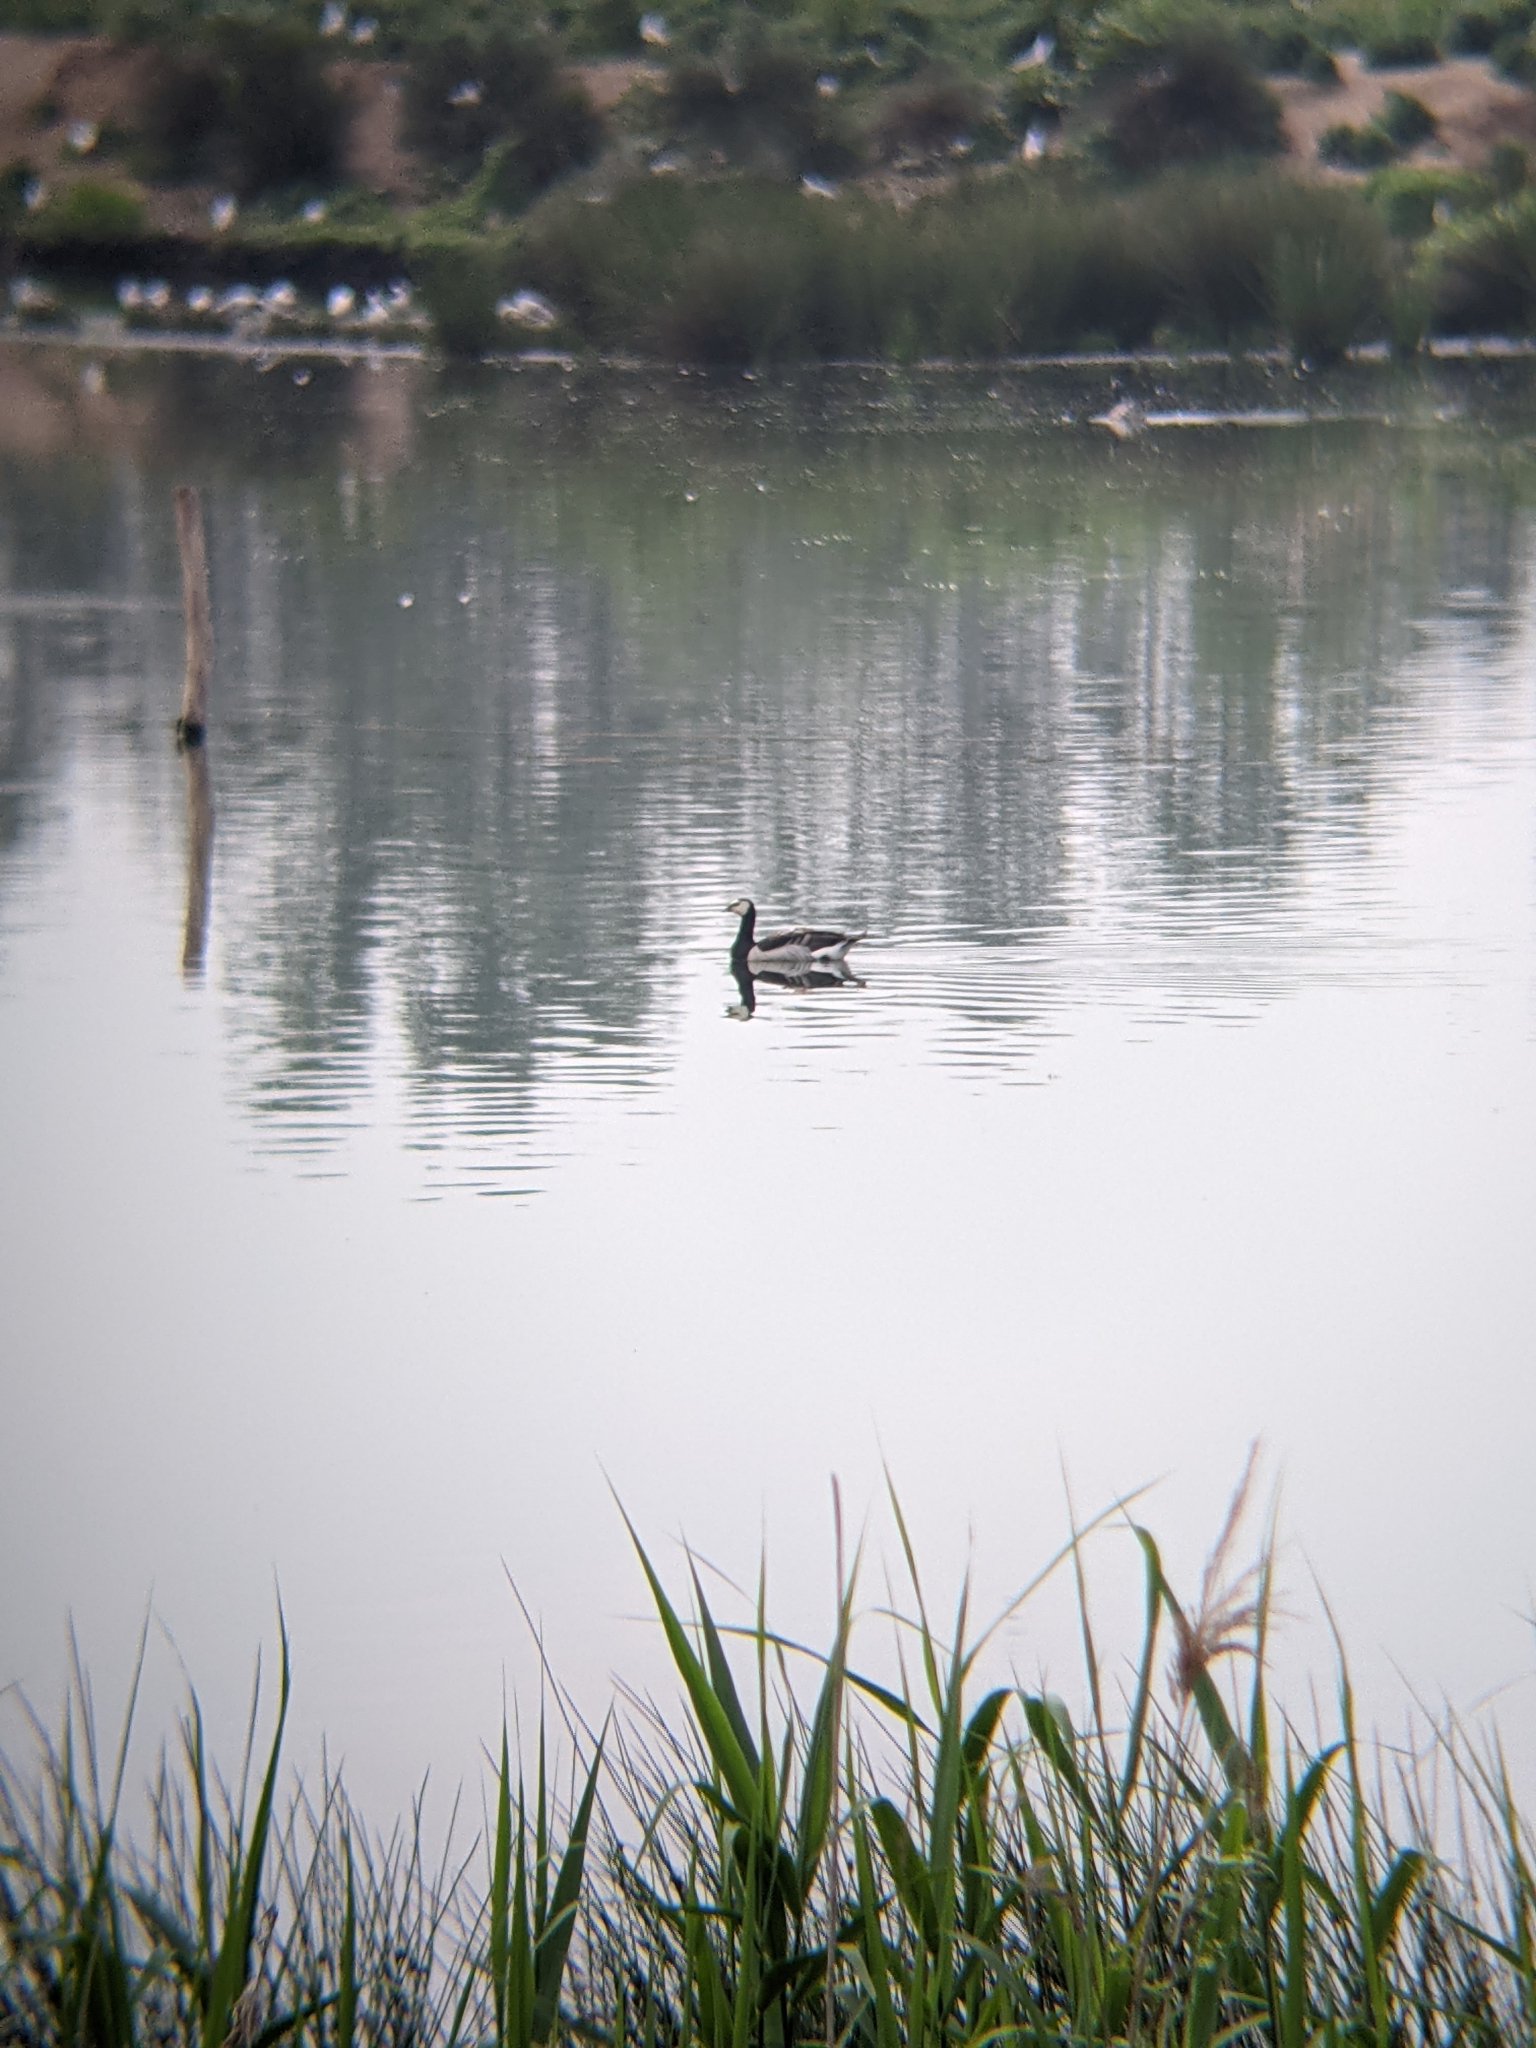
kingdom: Animalia
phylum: Chordata
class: Aves
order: Anseriformes
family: Anatidae
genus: Branta
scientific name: Branta leucopsis
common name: Barnacle goose
